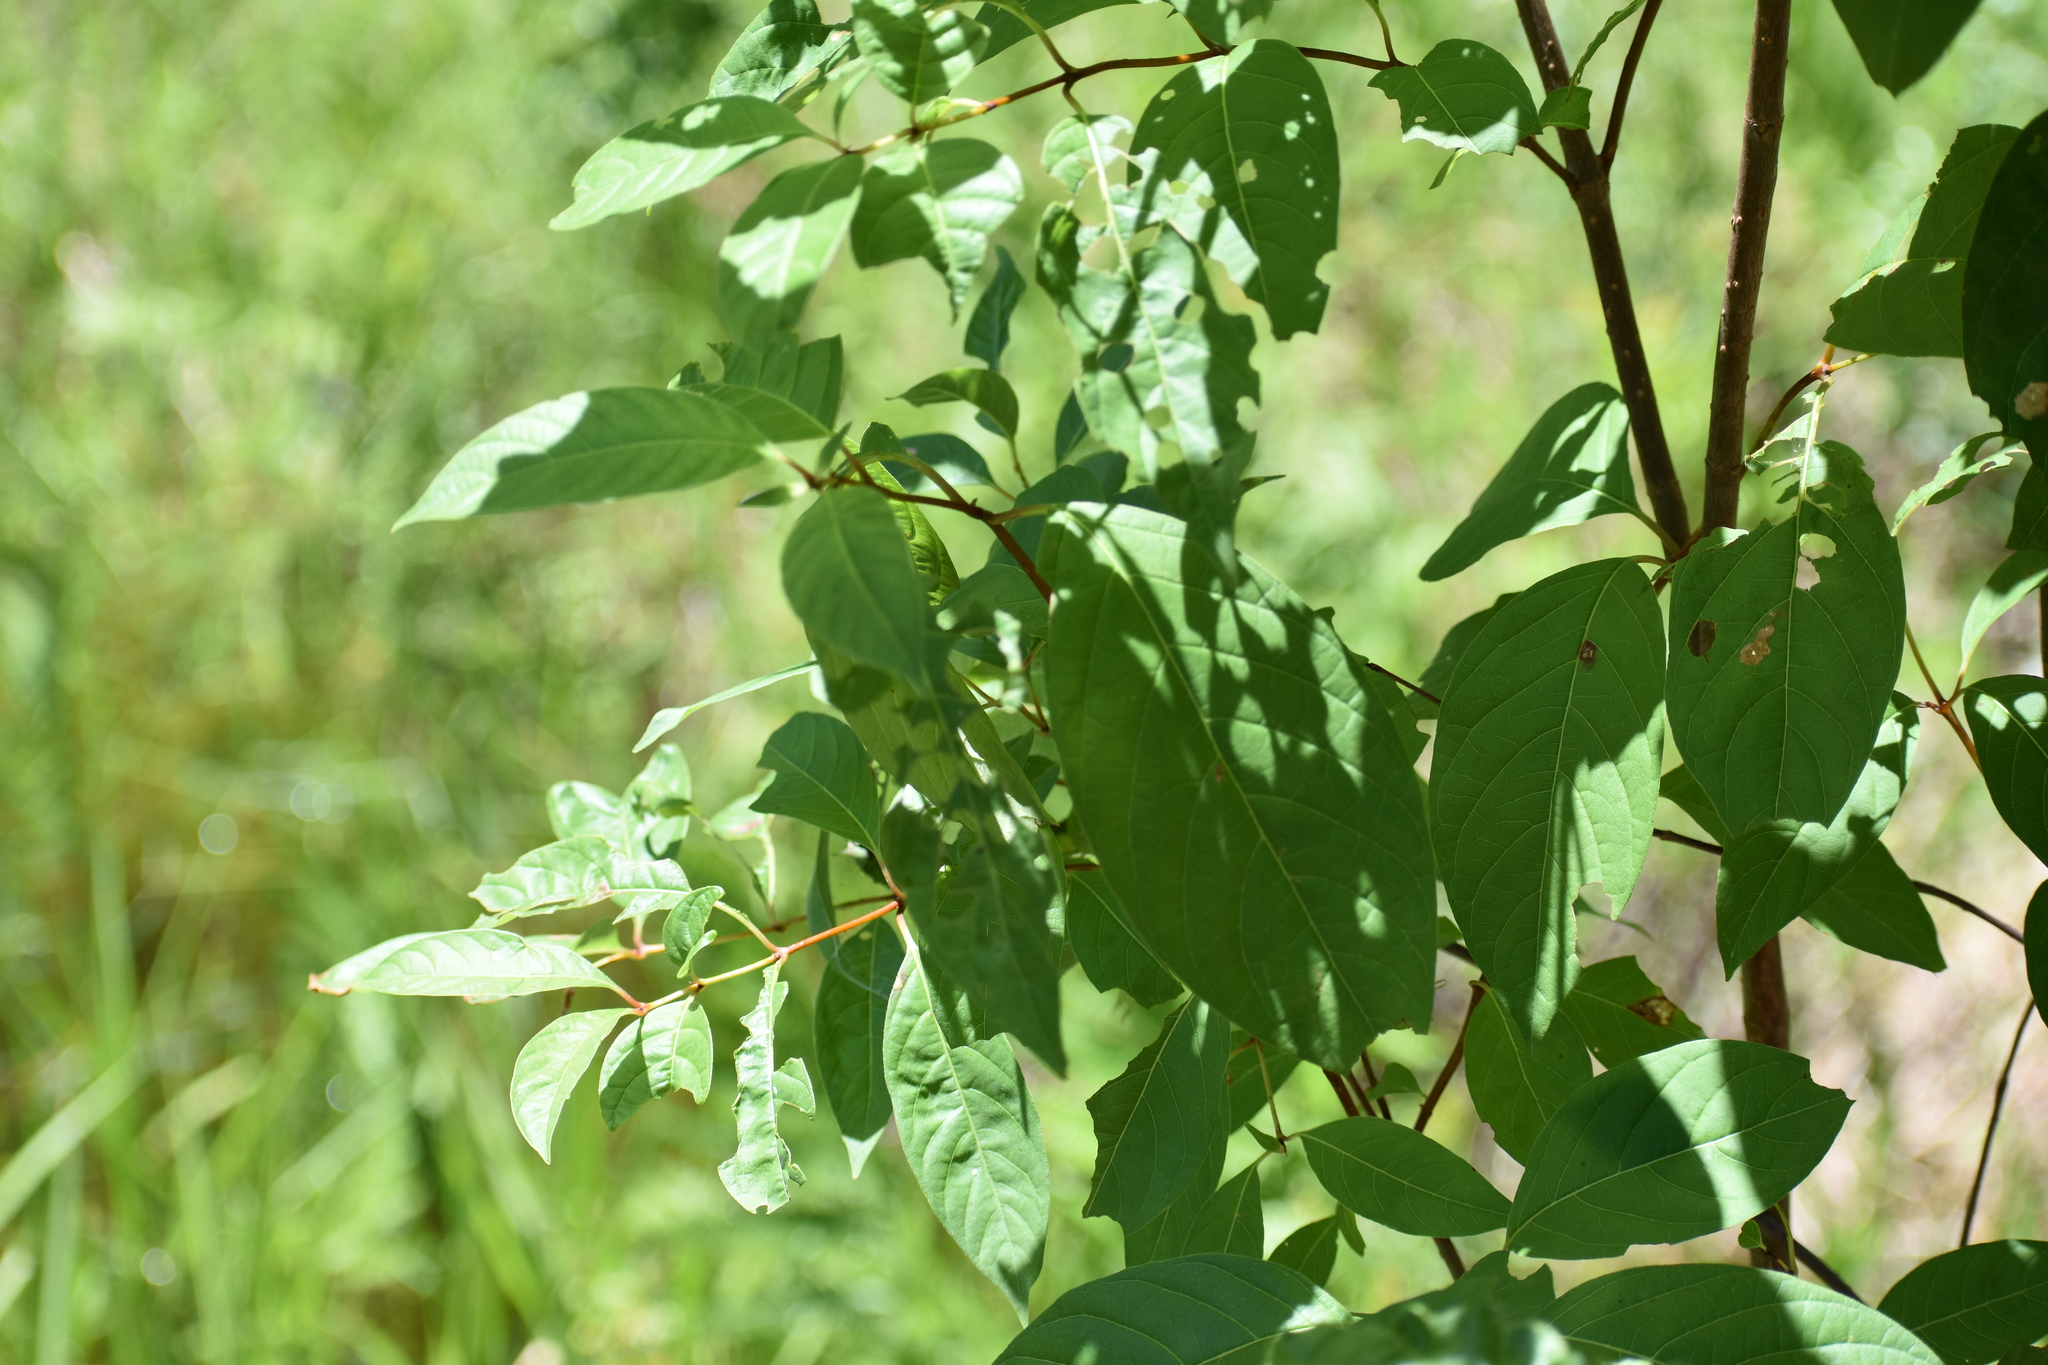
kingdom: Plantae
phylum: Tracheophyta
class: Magnoliopsida
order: Gentianales
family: Rubiaceae
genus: Cephalanthus
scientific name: Cephalanthus occidentalis
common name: Button-willow
